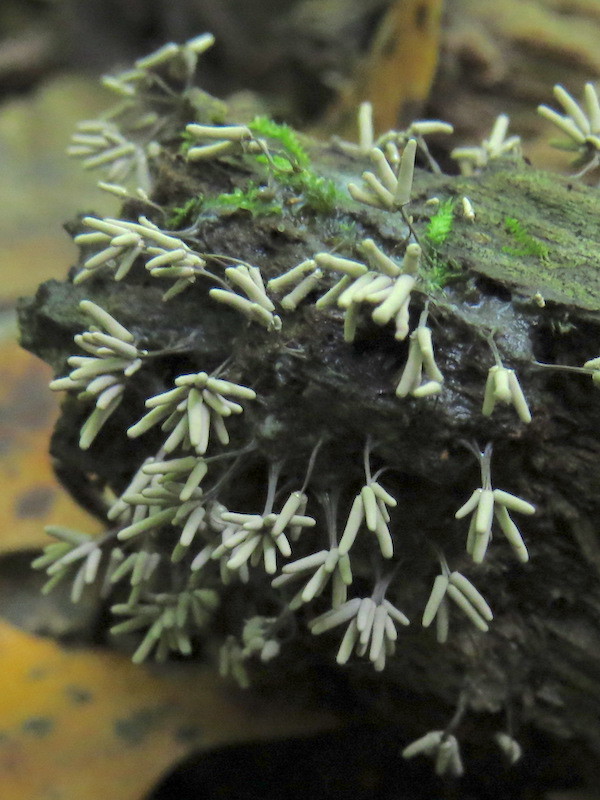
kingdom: Protozoa
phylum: Mycetozoa
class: Myxomycetes
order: Trichiales
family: Arcyriaceae
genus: Arcyria
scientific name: Arcyria cinerea
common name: White carnival candy slime mold
